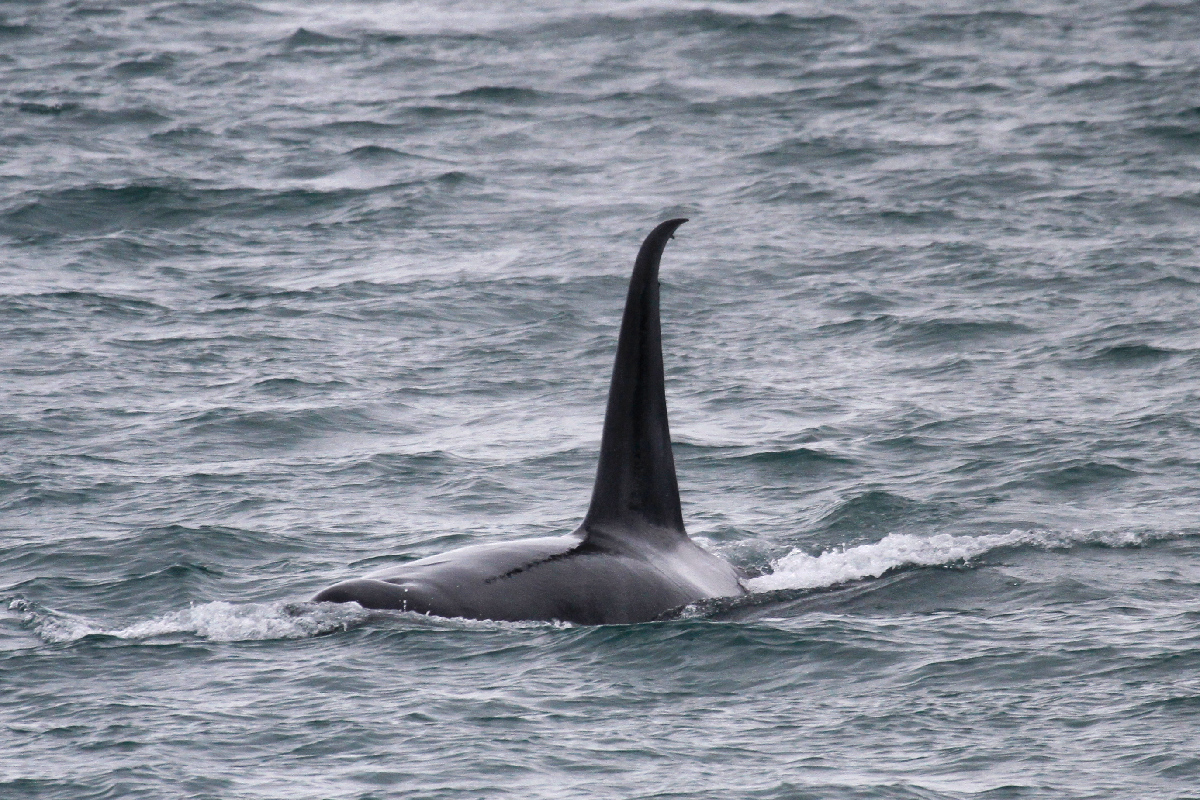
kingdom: Animalia
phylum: Chordata
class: Mammalia
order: Cetacea
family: Delphinidae
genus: Orcinus
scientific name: Orcinus orca
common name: Killer whale
